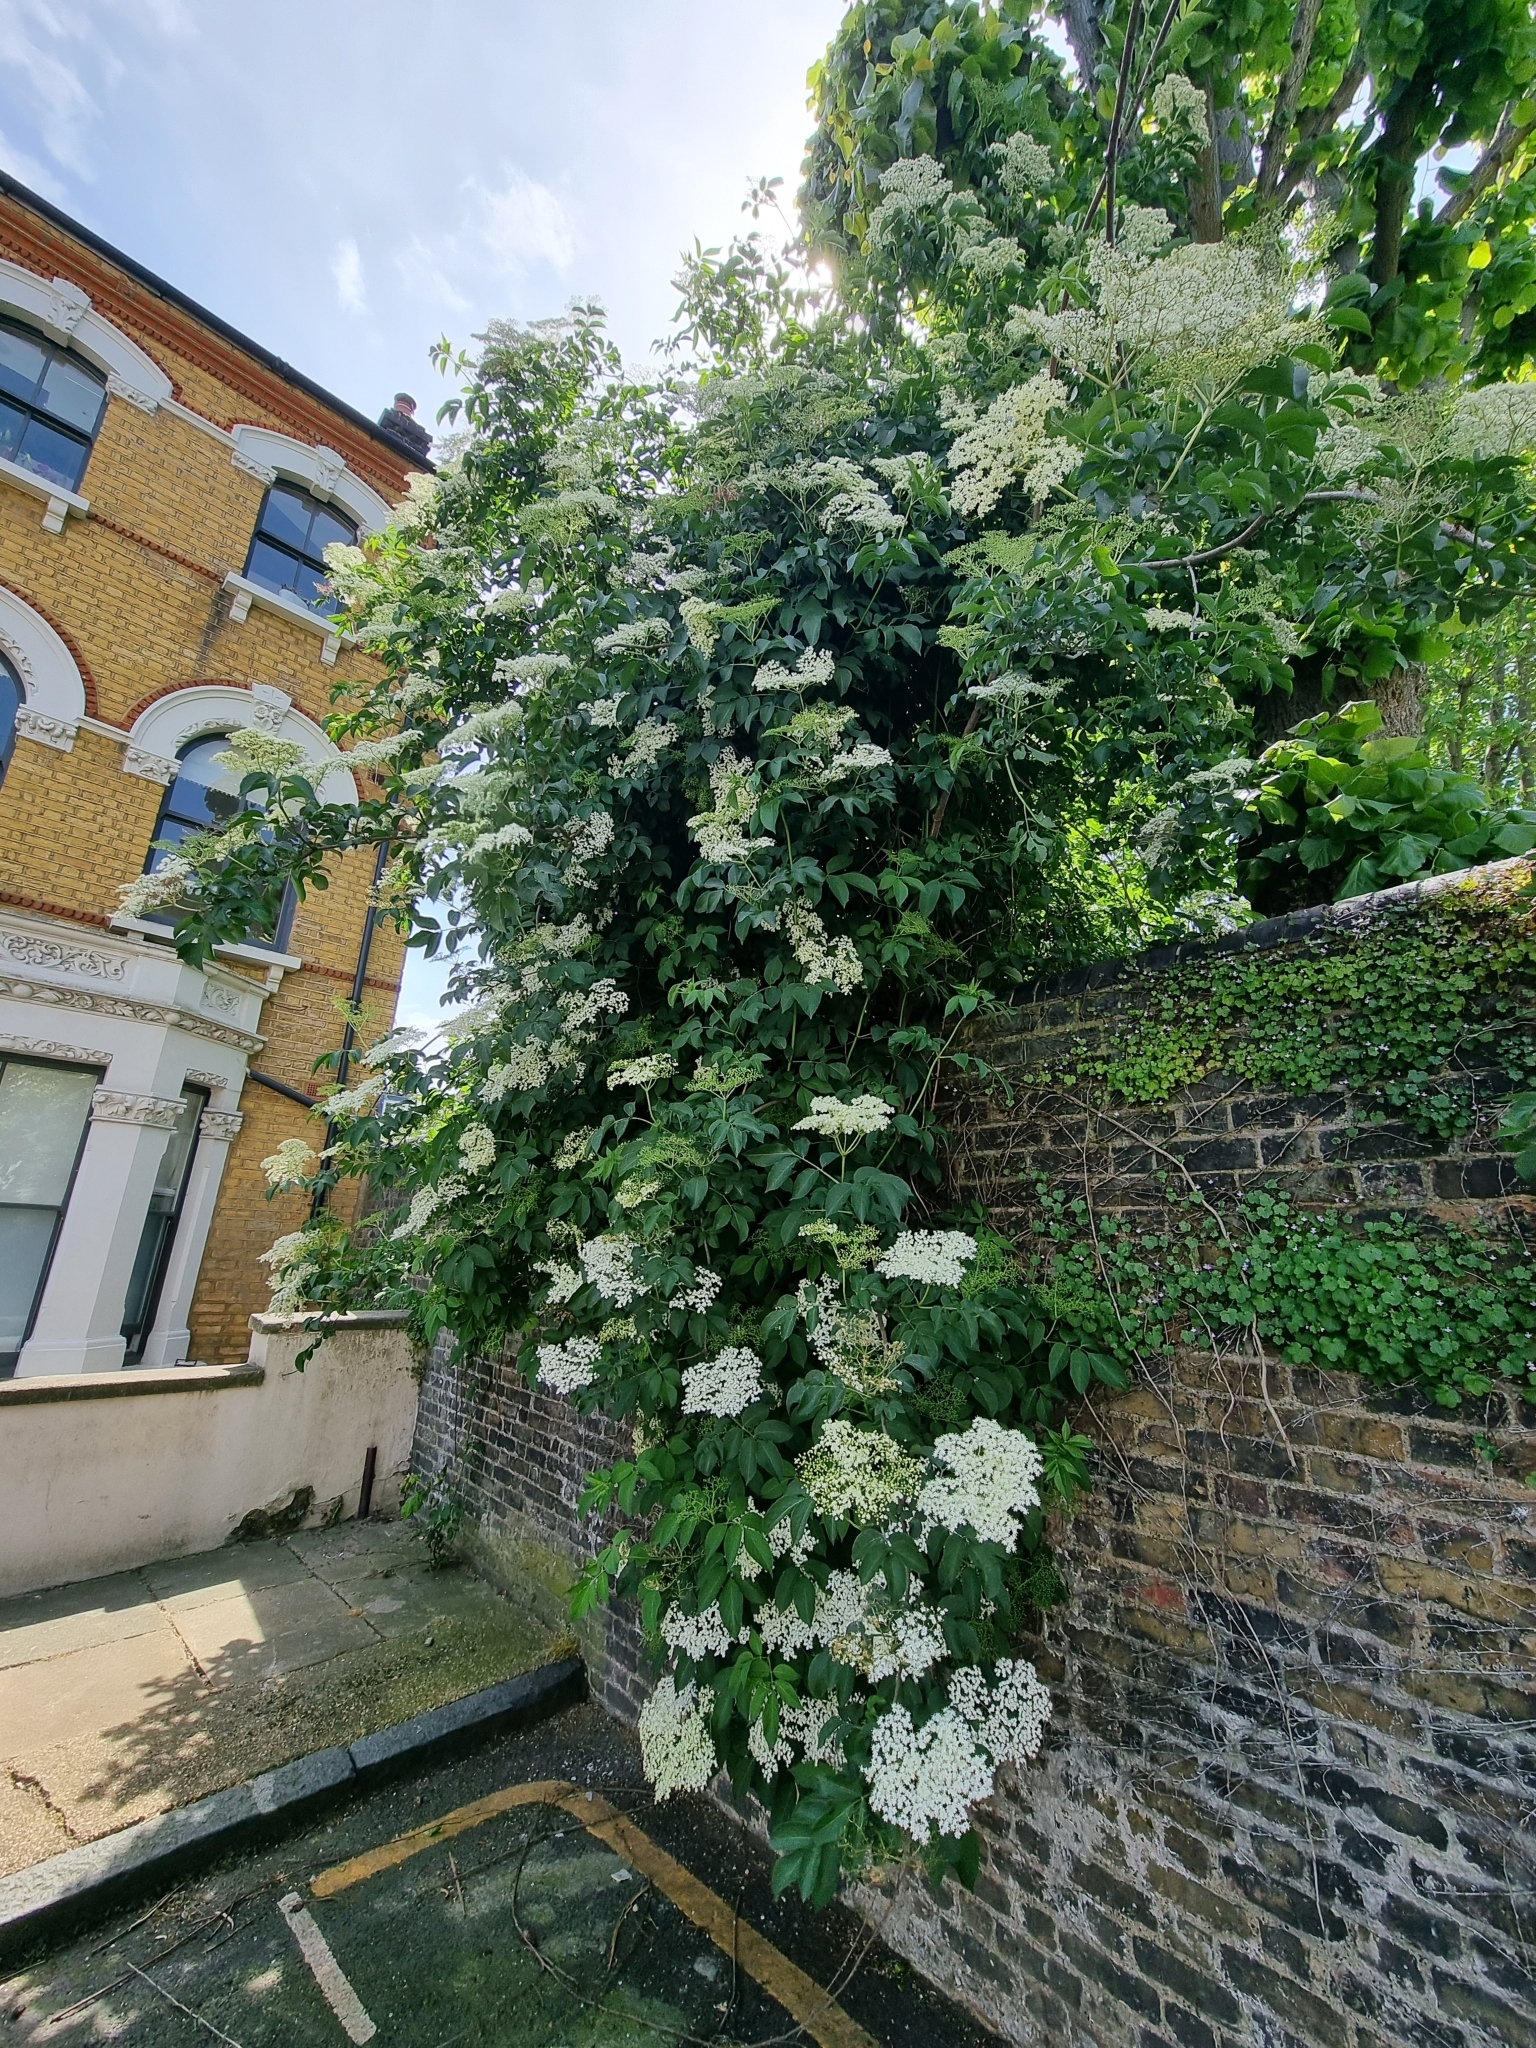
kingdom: Plantae
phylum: Tracheophyta
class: Magnoliopsida
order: Dipsacales
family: Viburnaceae
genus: Sambucus
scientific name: Sambucus nigra
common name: Elder
